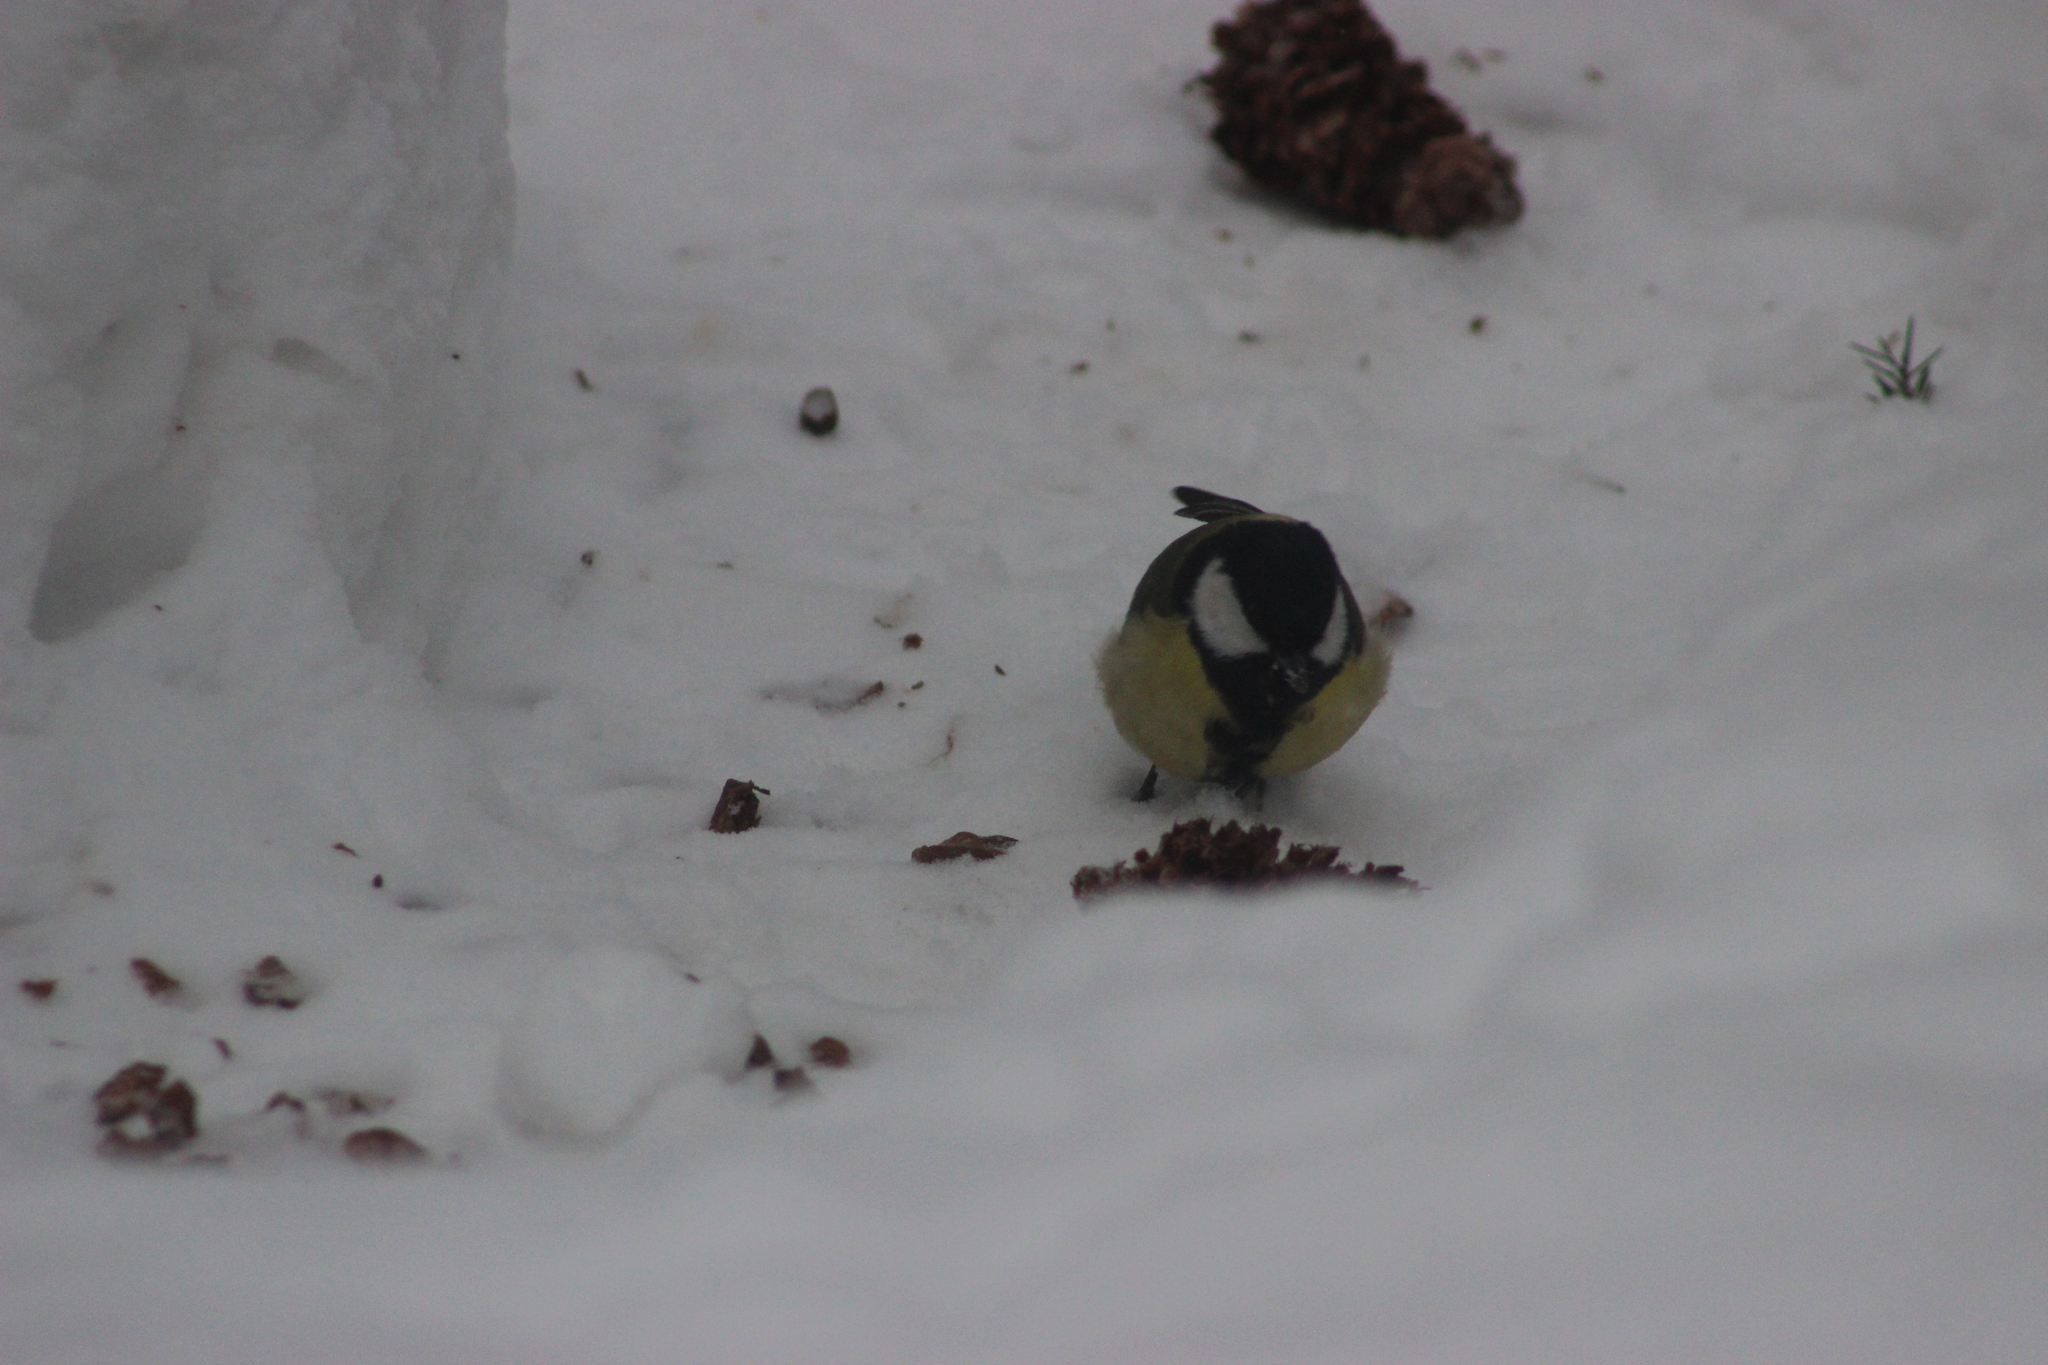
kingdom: Animalia
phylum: Chordata
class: Aves
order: Passeriformes
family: Paridae
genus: Parus
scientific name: Parus major
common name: Great tit
